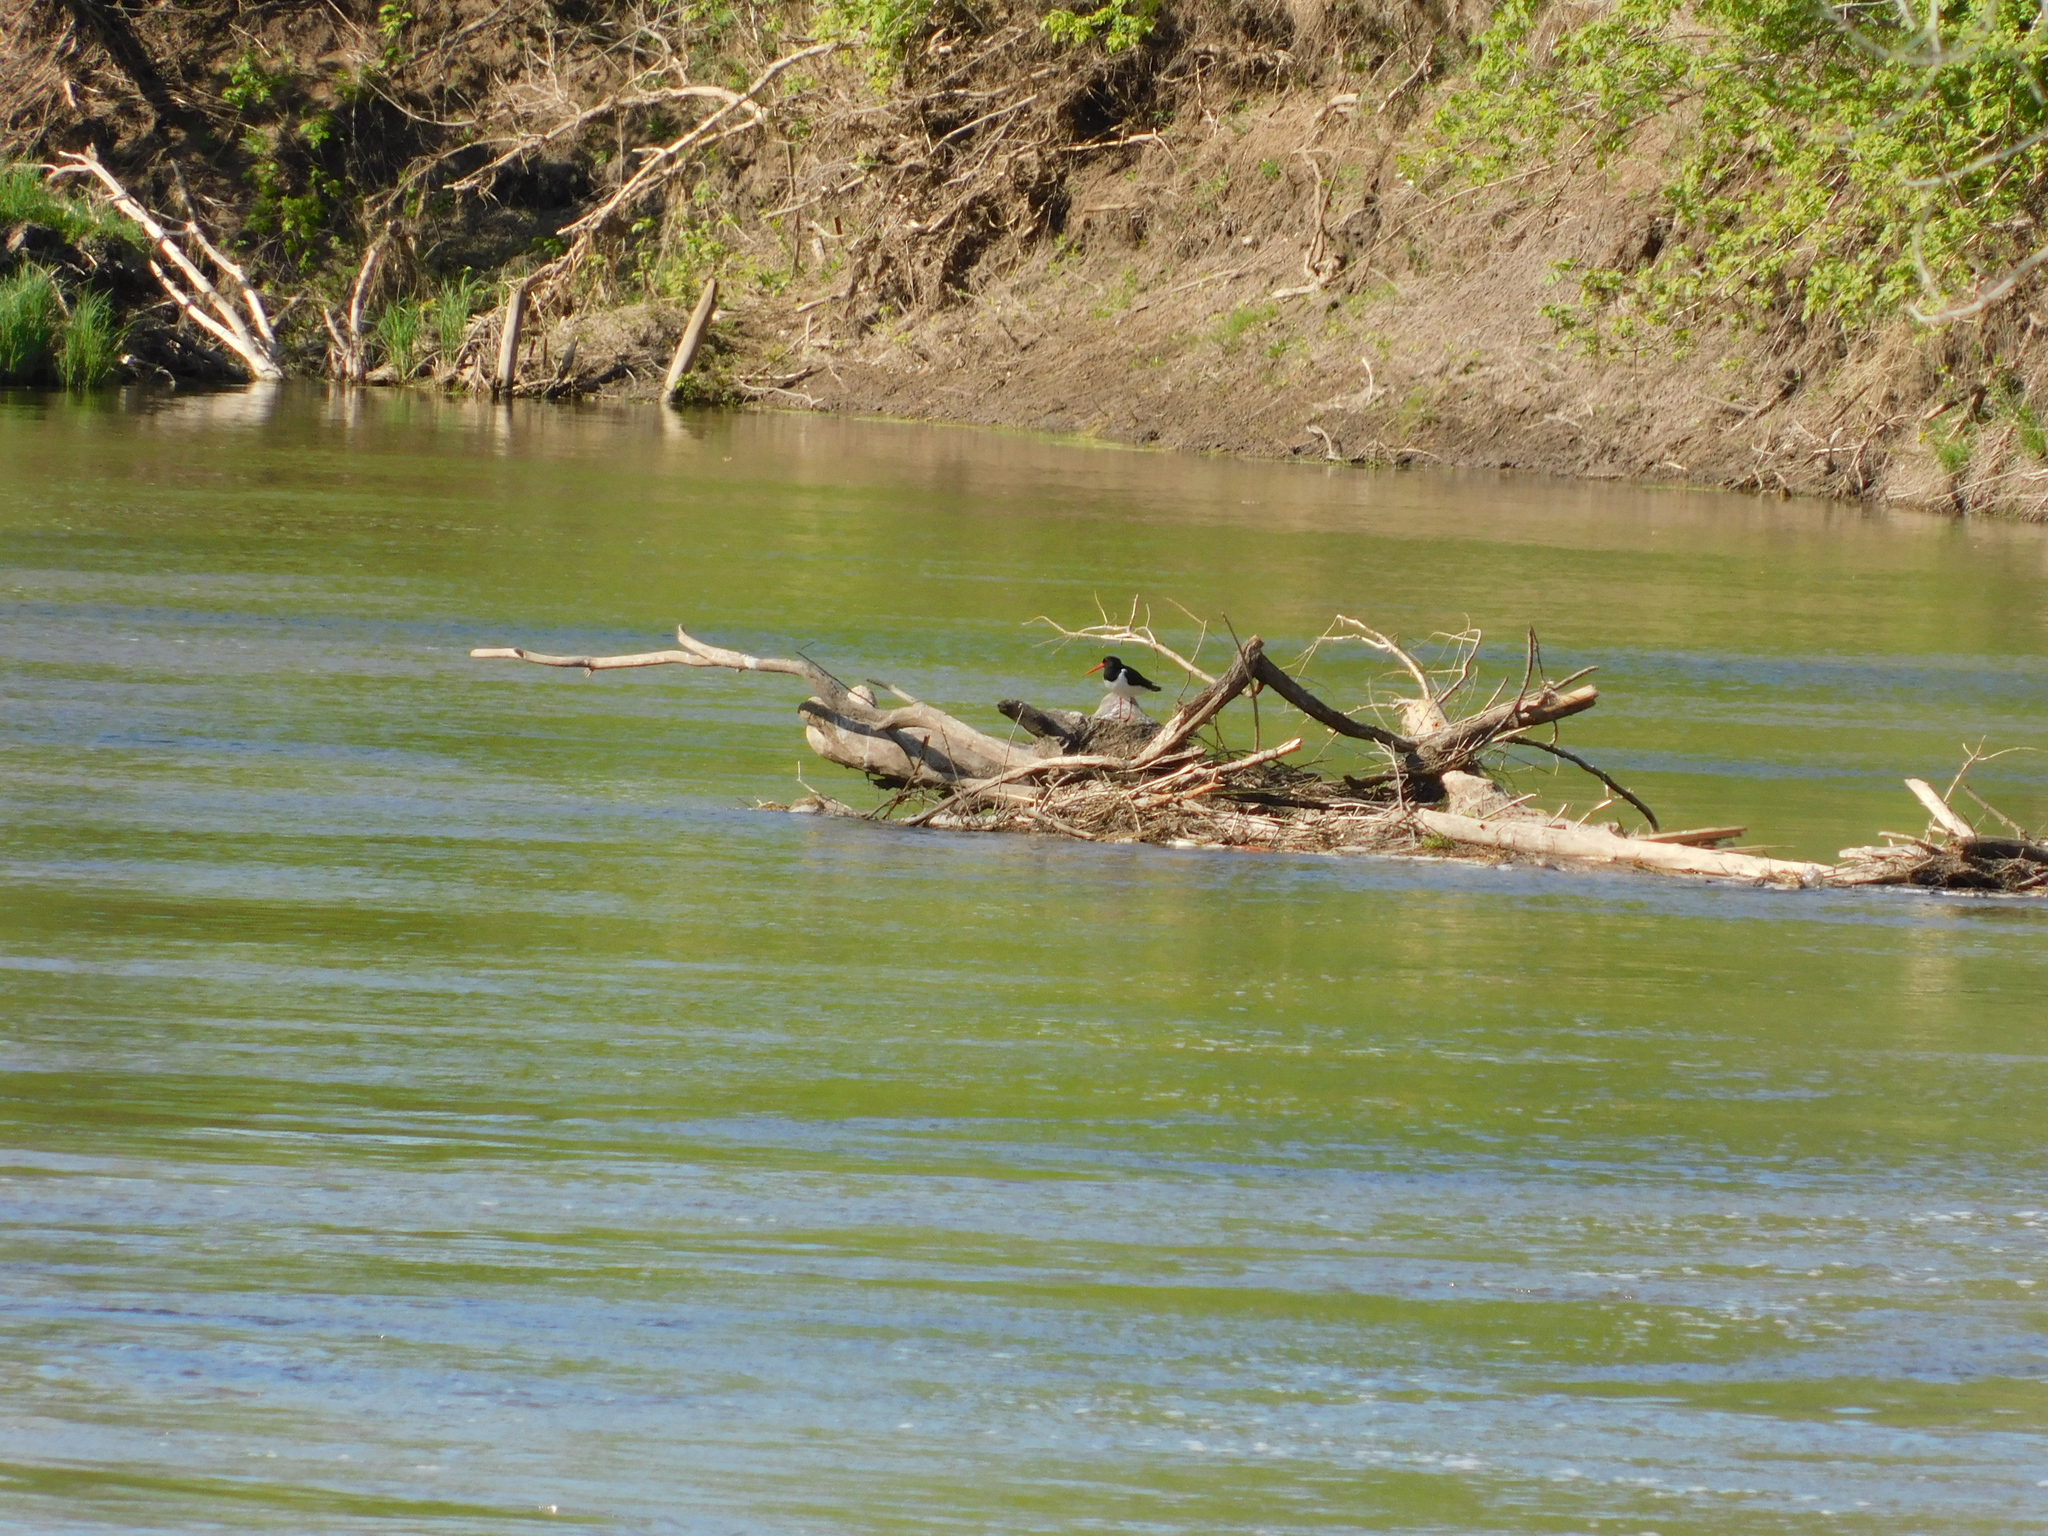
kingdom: Animalia
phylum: Chordata
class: Aves
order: Charadriiformes
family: Haematopodidae
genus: Haematopus
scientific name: Haematopus ostralegus
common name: Eurasian oystercatcher
